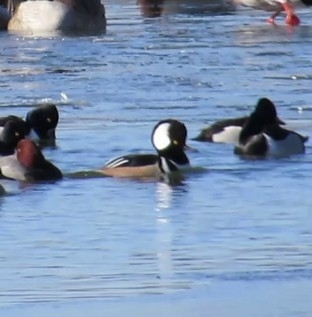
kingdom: Animalia
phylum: Chordata
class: Aves
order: Anseriformes
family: Anatidae
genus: Lophodytes
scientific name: Lophodytes cucullatus
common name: Hooded merganser
